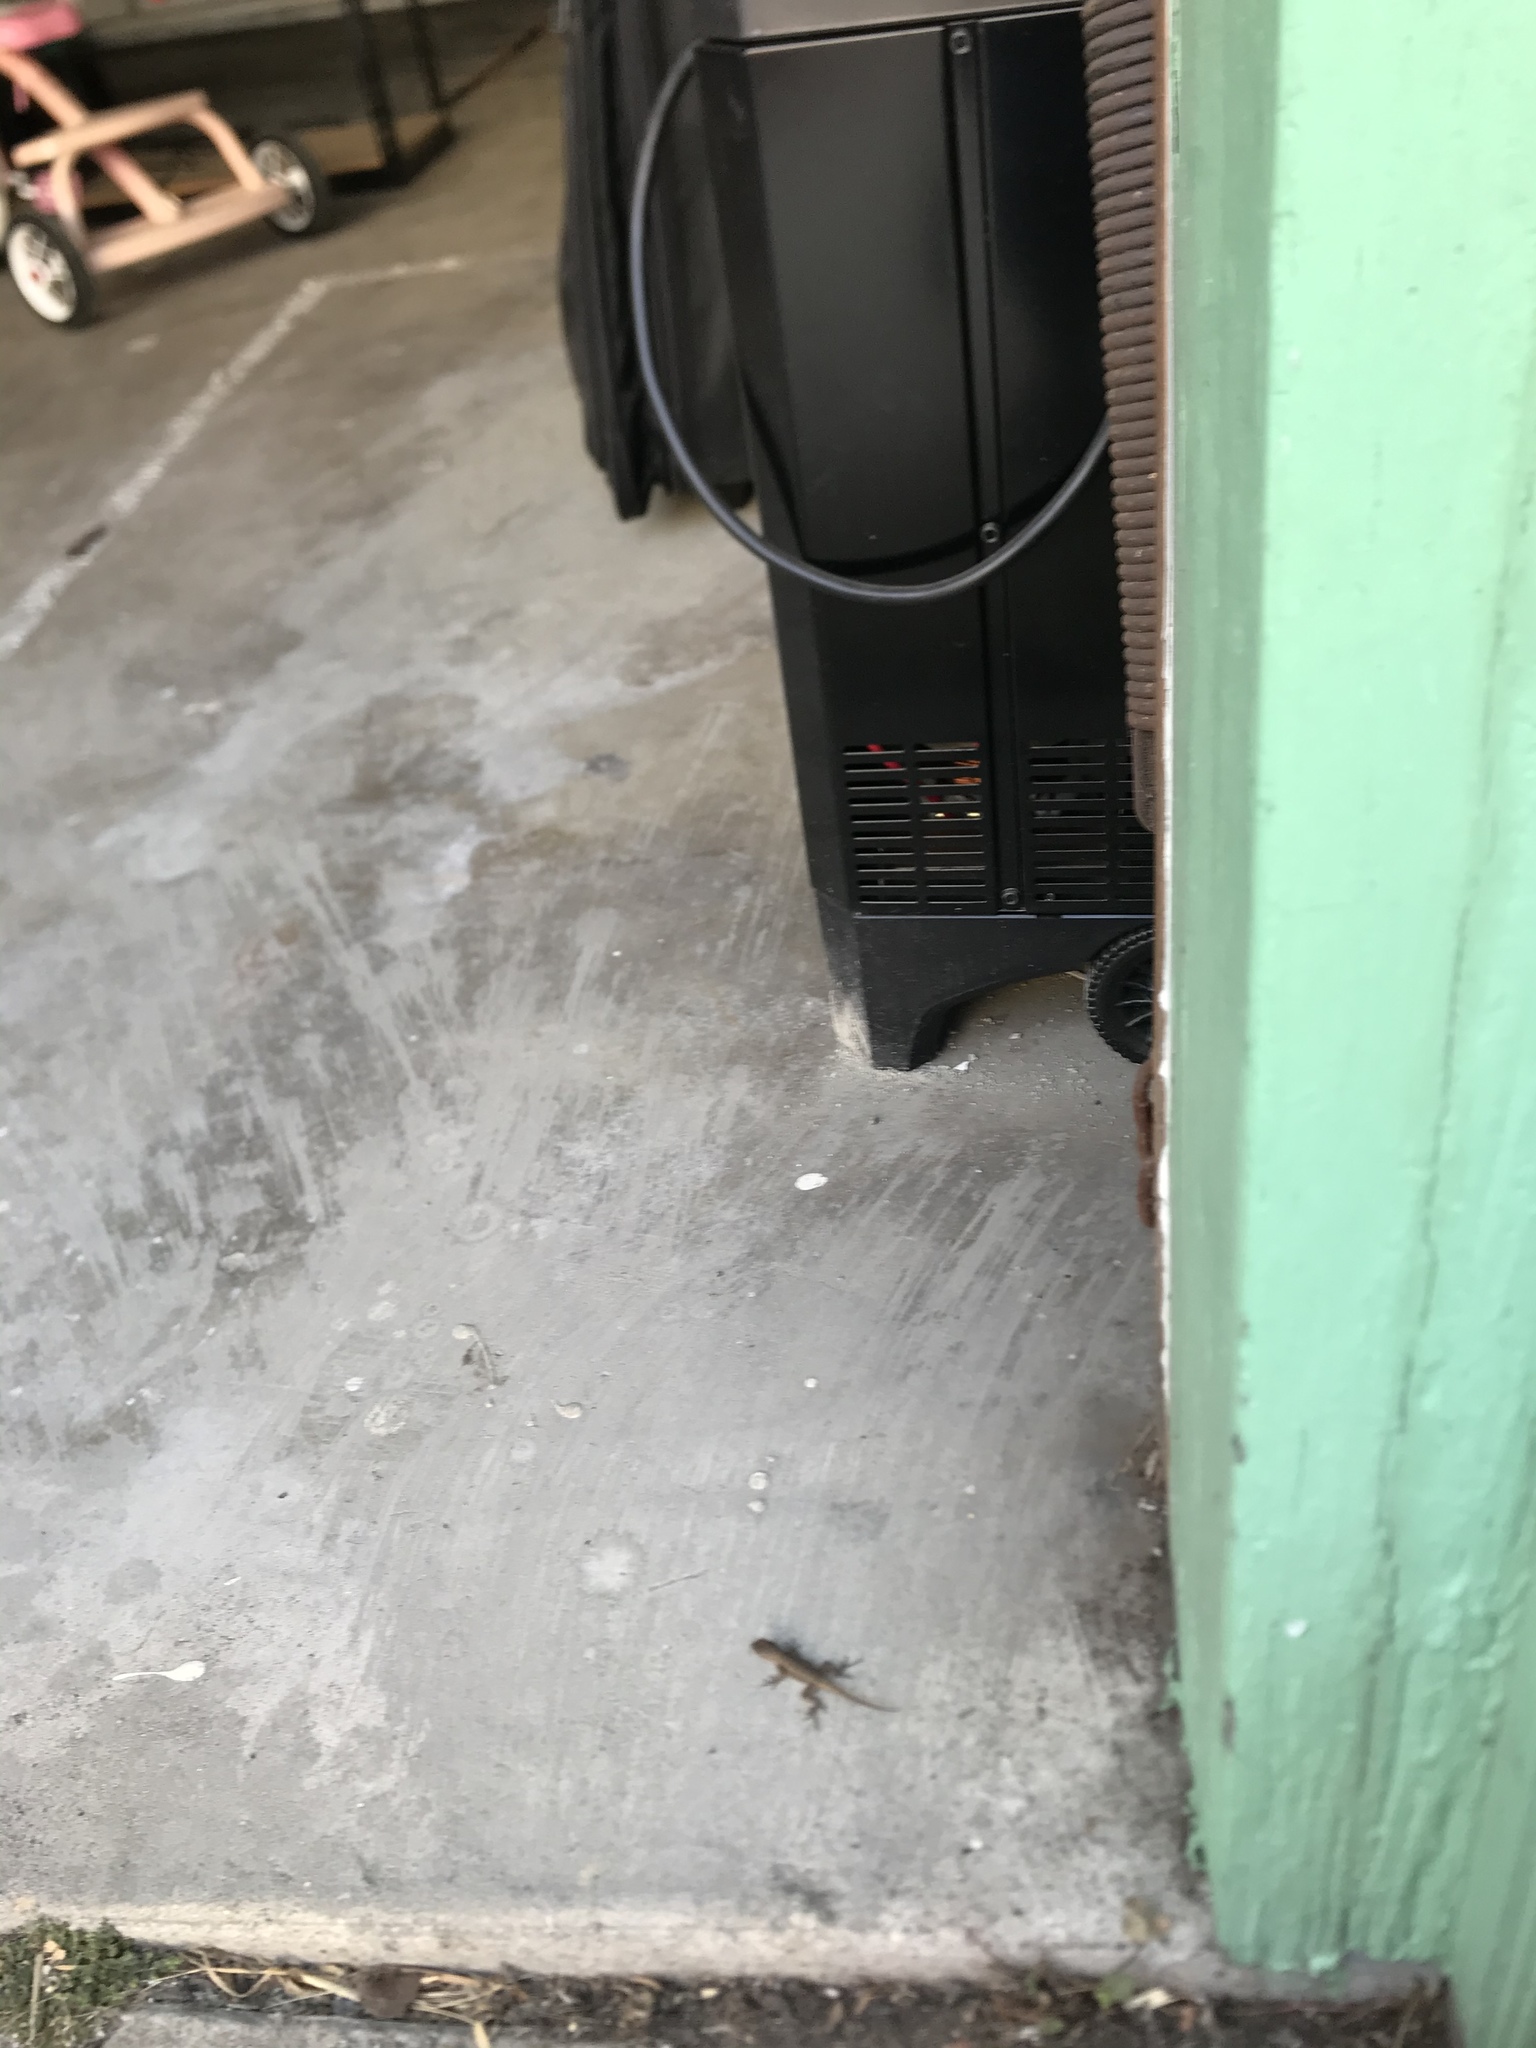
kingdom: Animalia
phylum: Chordata
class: Squamata
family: Phrynosomatidae
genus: Sceloporus
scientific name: Sceloporus occidentalis
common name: Western fence lizard
